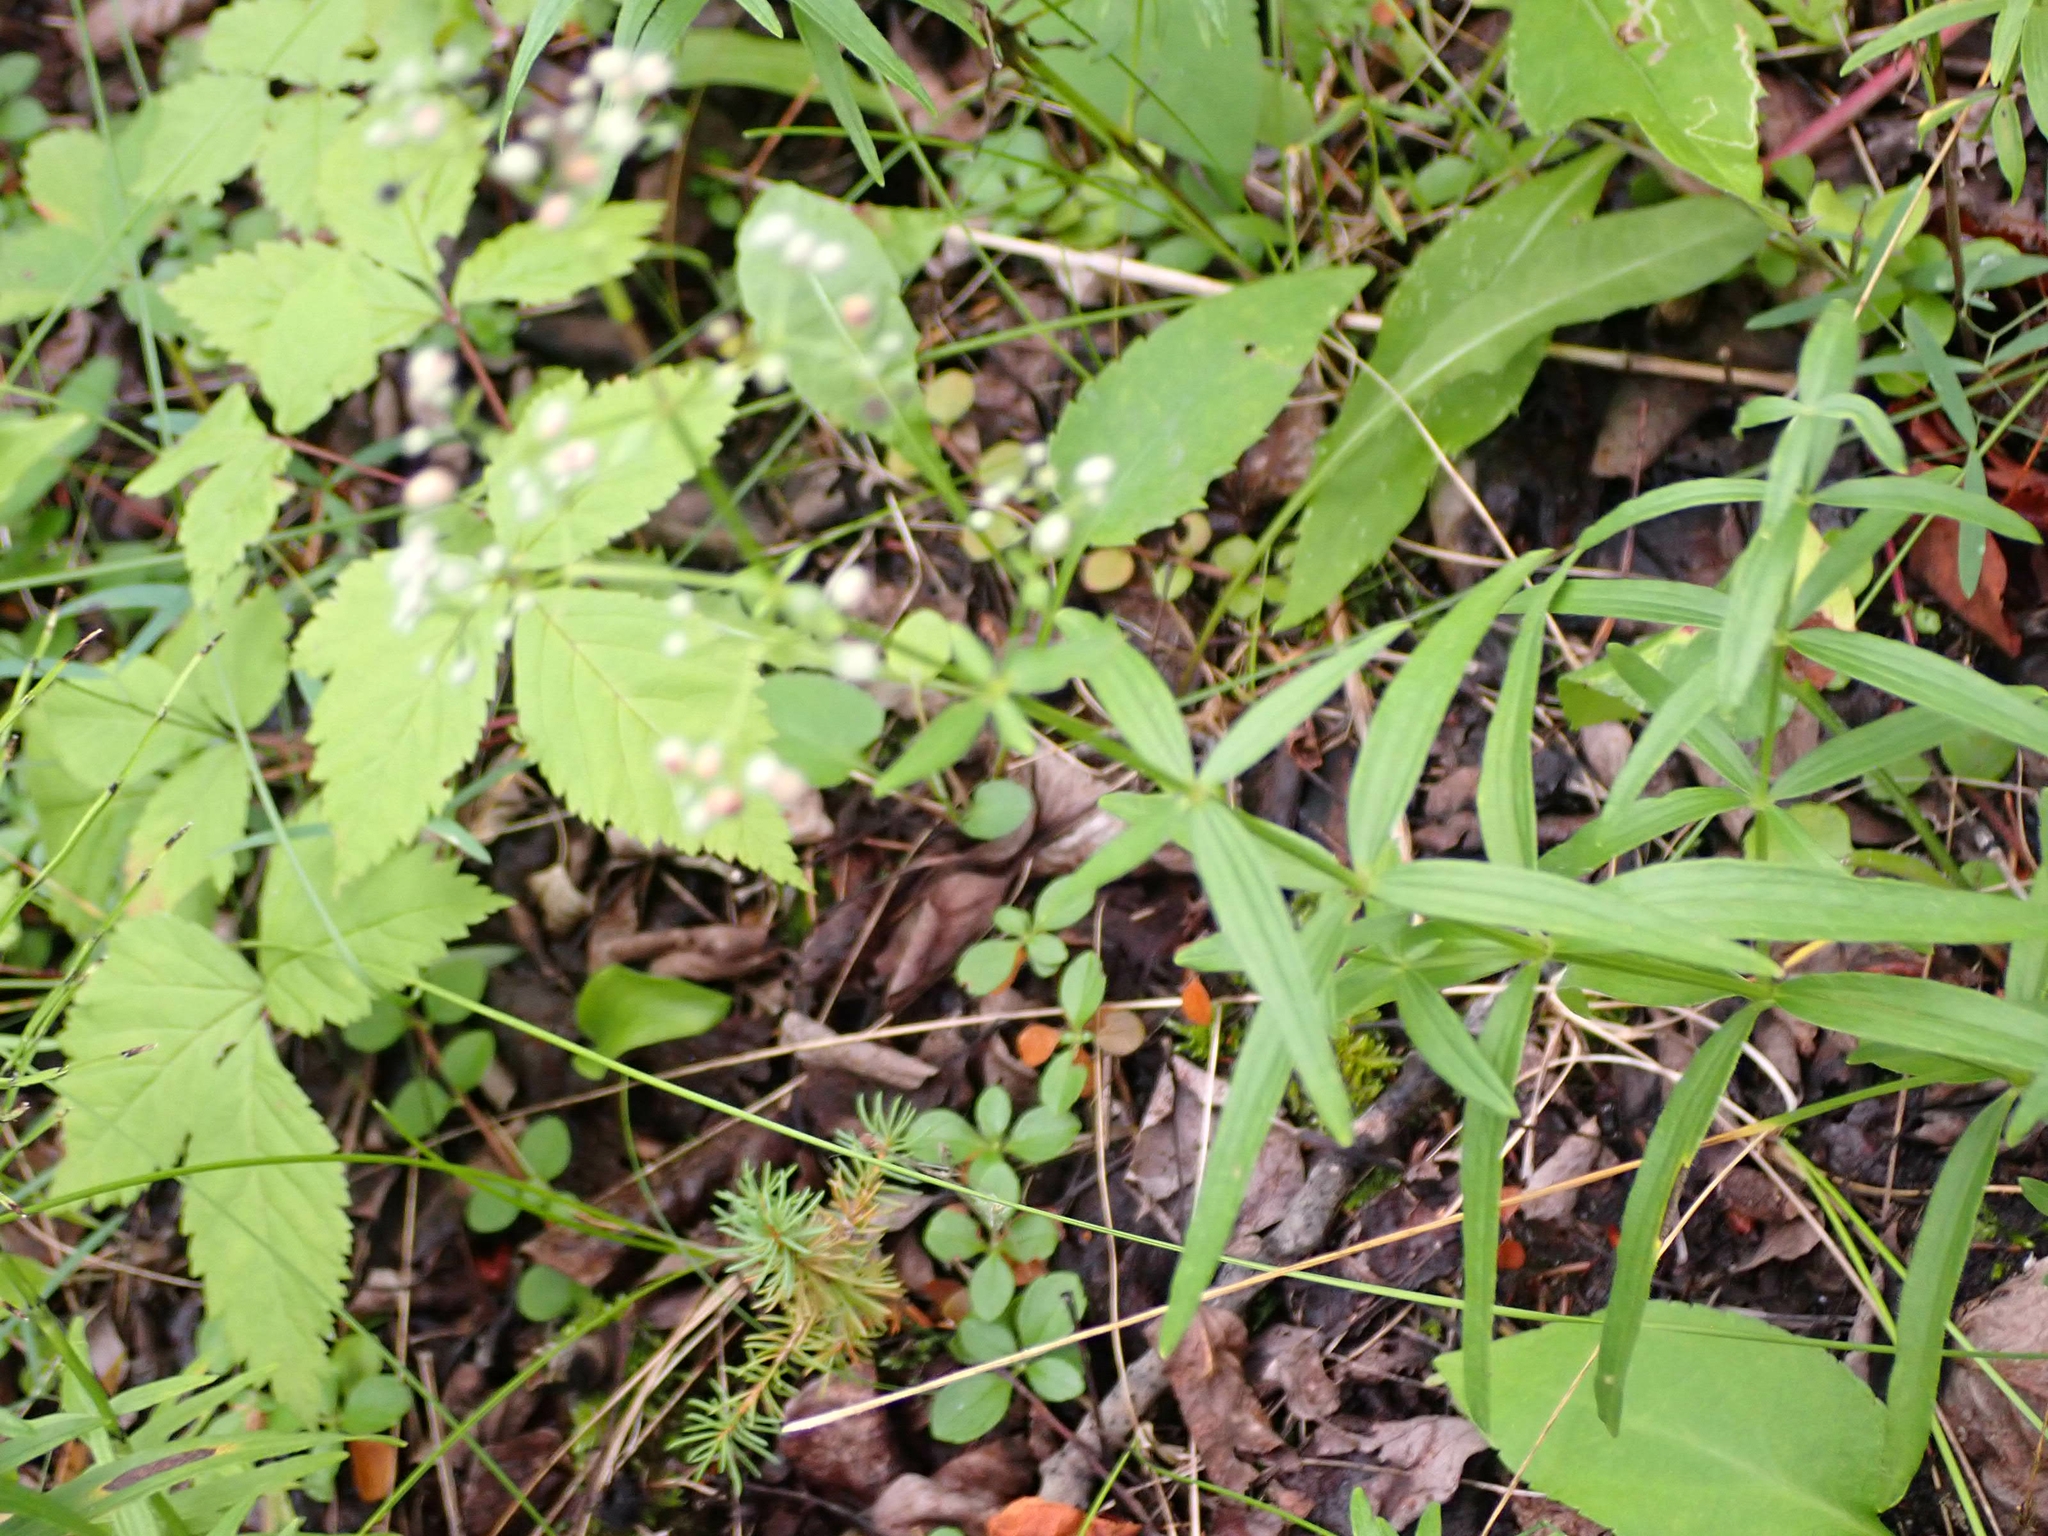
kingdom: Plantae
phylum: Tracheophyta
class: Magnoliopsida
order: Gentianales
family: Rubiaceae
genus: Galium
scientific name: Galium boreale
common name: Northern bedstraw
